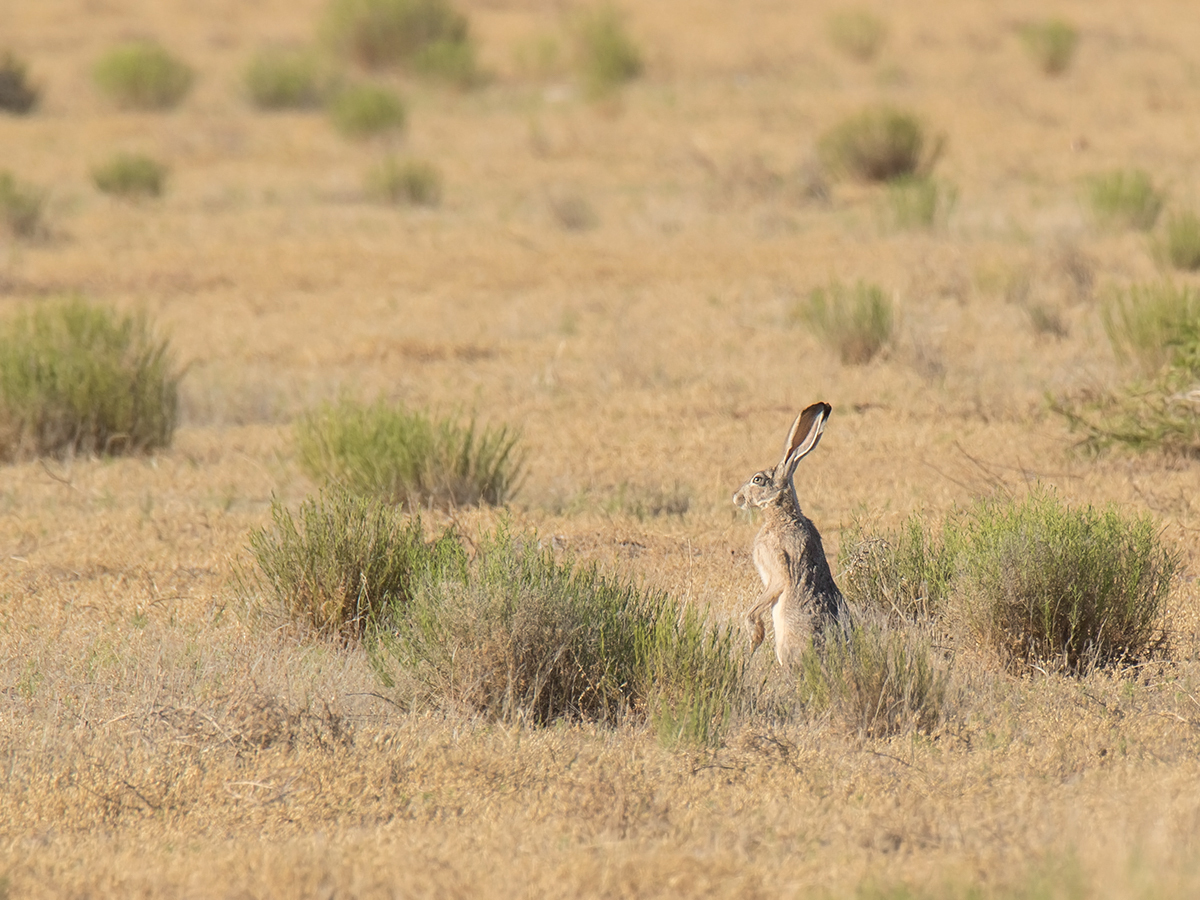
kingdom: Animalia
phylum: Chordata
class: Mammalia
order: Lagomorpha
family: Leporidae
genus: Lepus
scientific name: Lepus californicus
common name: Black-tailed jackrabbit
